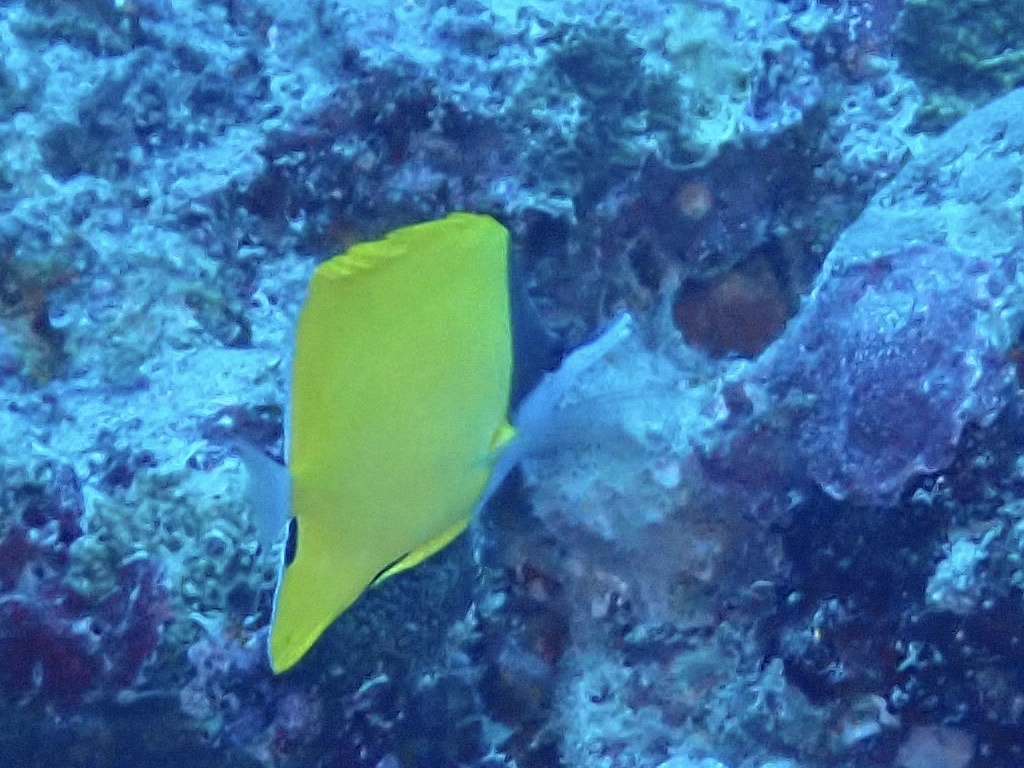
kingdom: Animalia
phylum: Chordata
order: Perciformes
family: Chaetodontidae
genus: Forcipiger
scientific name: Forcipiger flavissimus
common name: Forcepsfish
